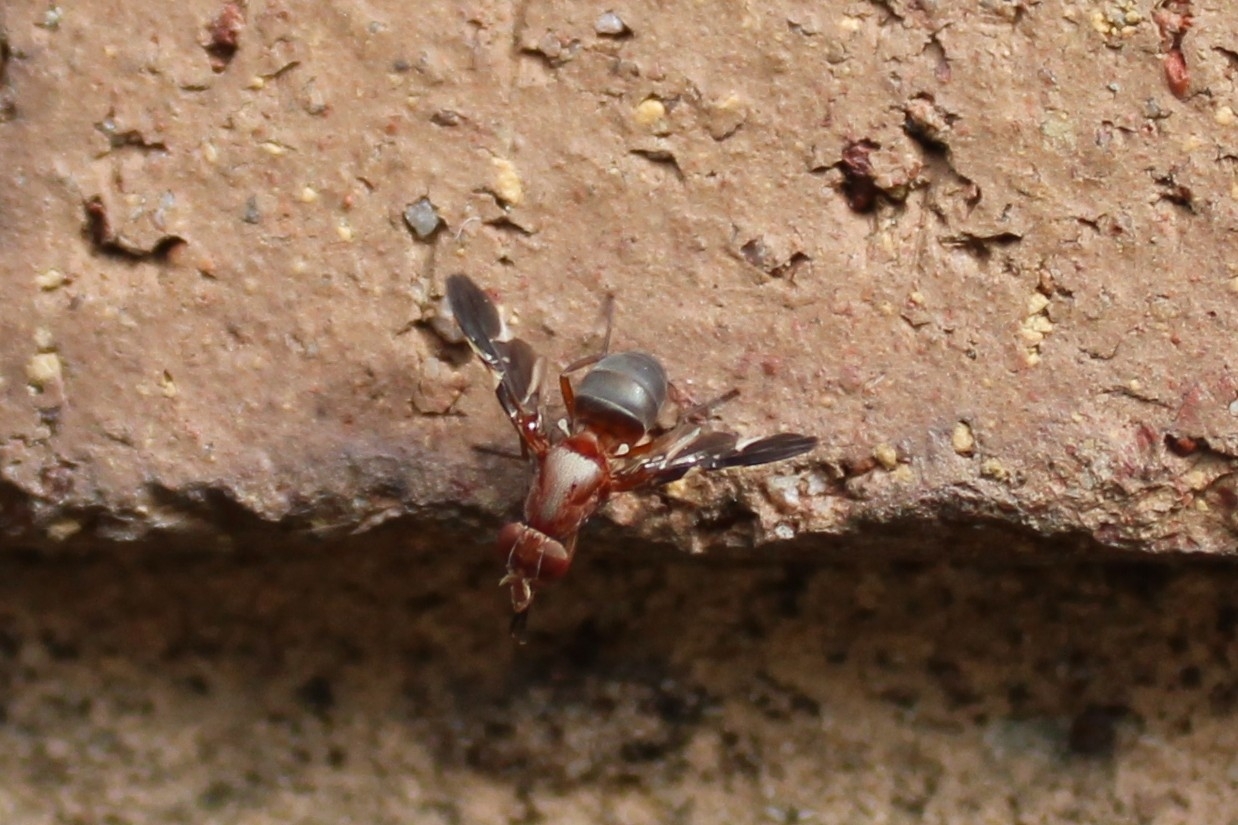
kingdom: Animalia
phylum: Arthropoda
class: Insecta
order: Diptera
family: Ulidiidae
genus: Delphinia
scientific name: Delphinia picta
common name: Common picture-winged fly
